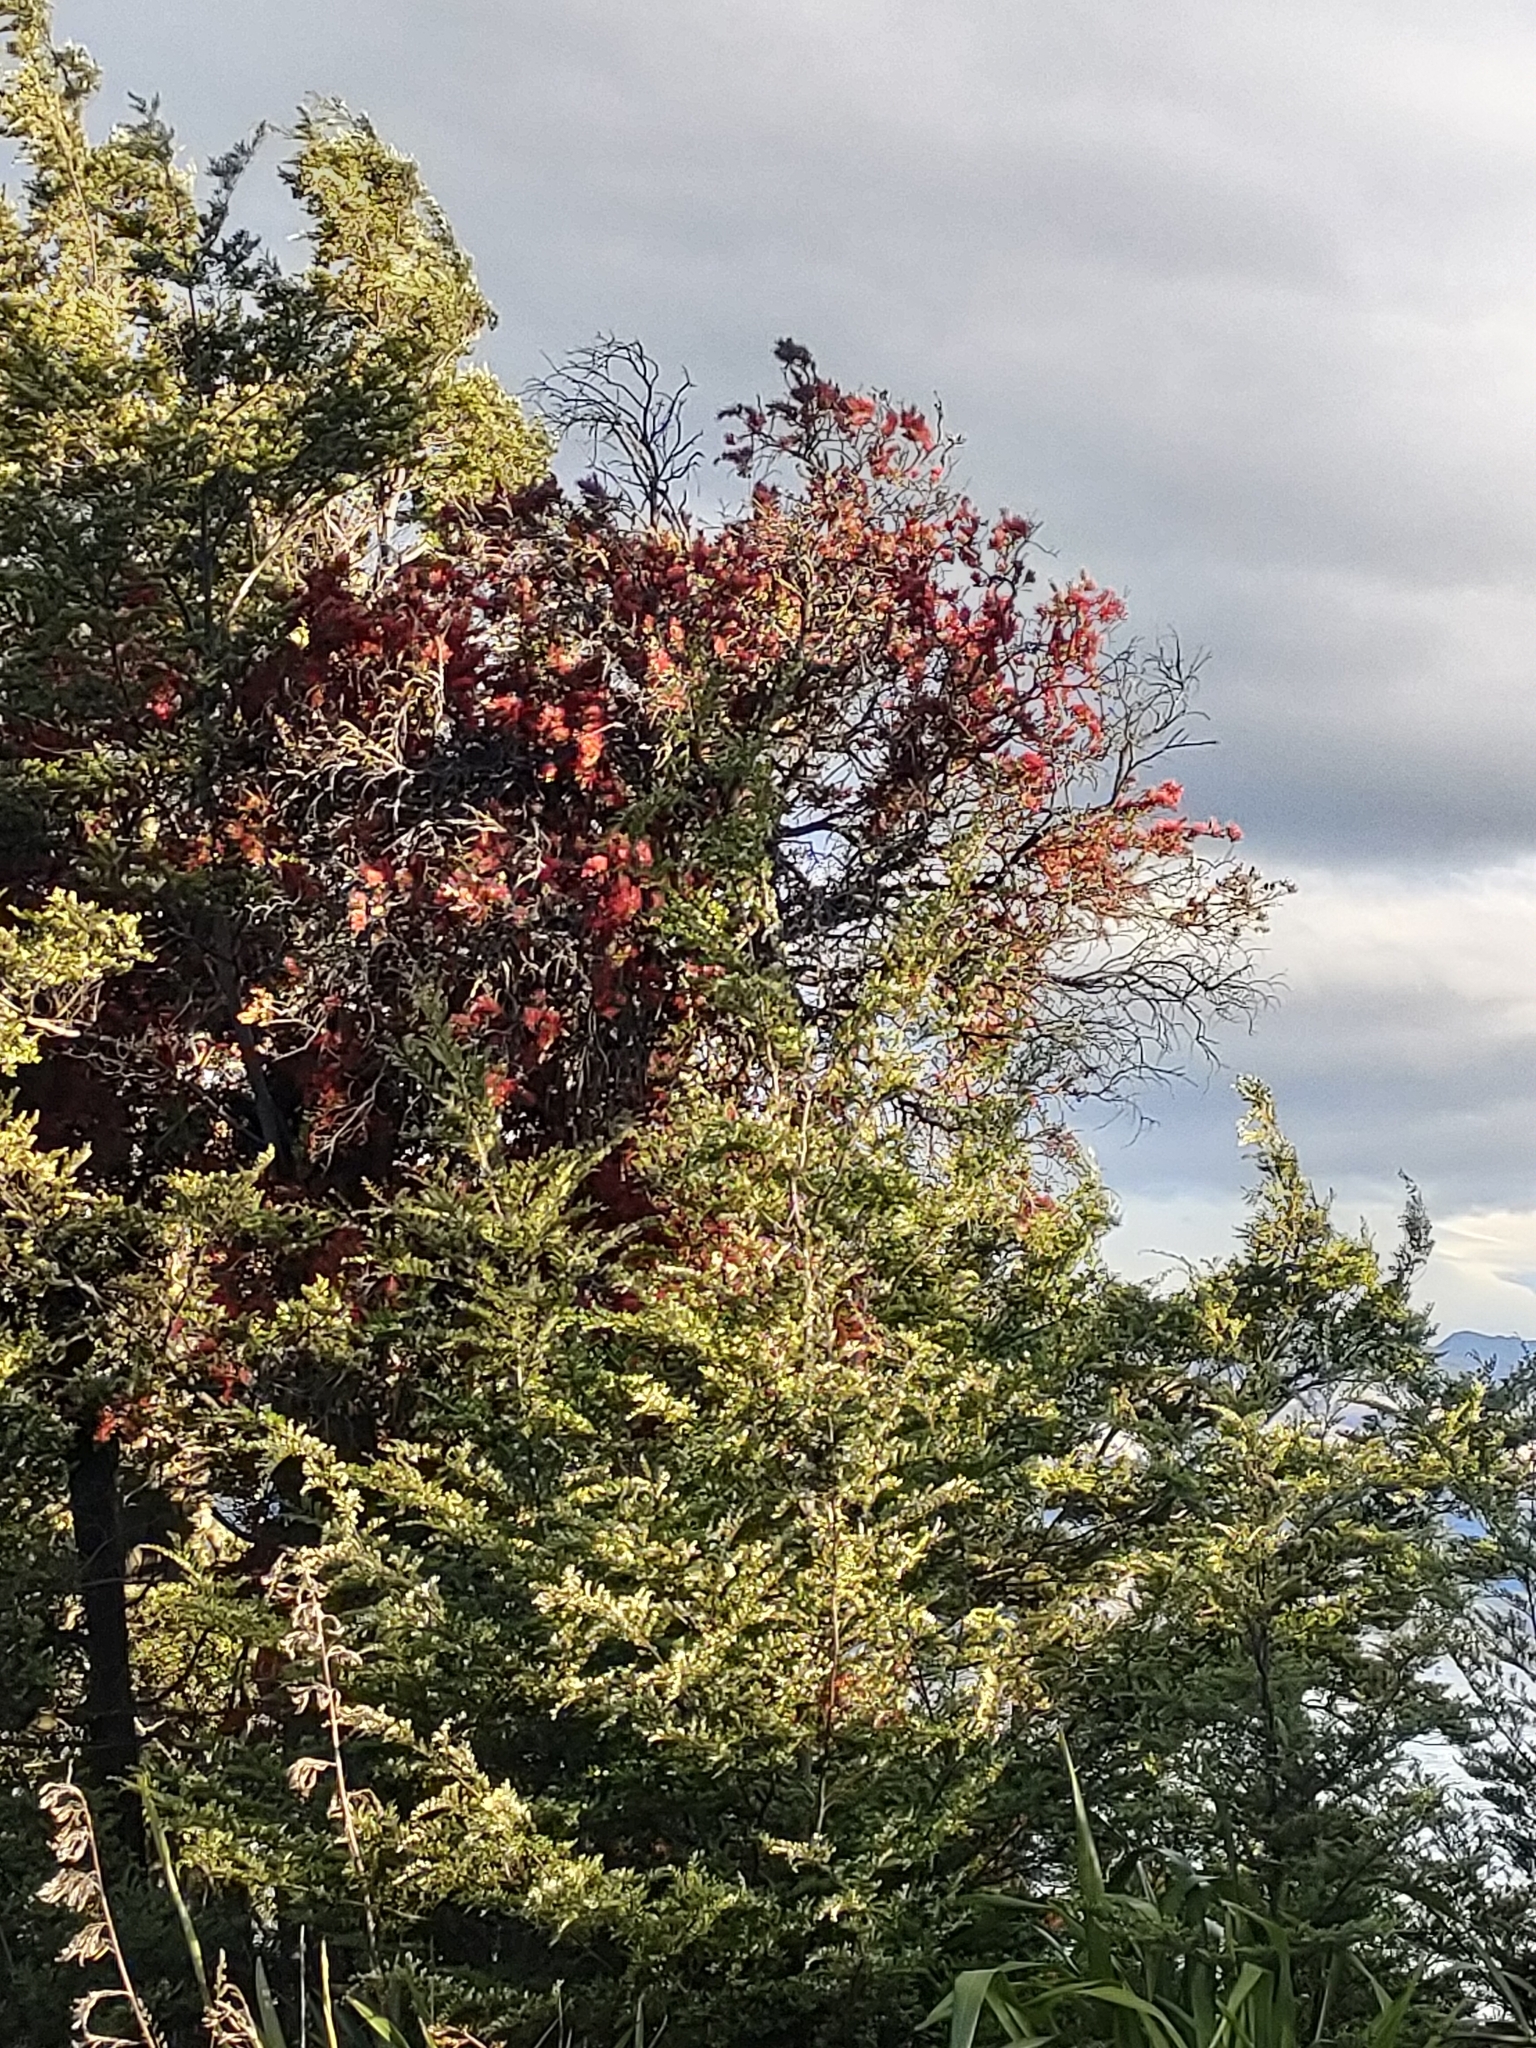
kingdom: Plantae
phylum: Tracheophyta
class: Magnoliopsida
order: Santalales
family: Loranthaceae
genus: Peraxilla
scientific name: Peraxilla tetrapetala
